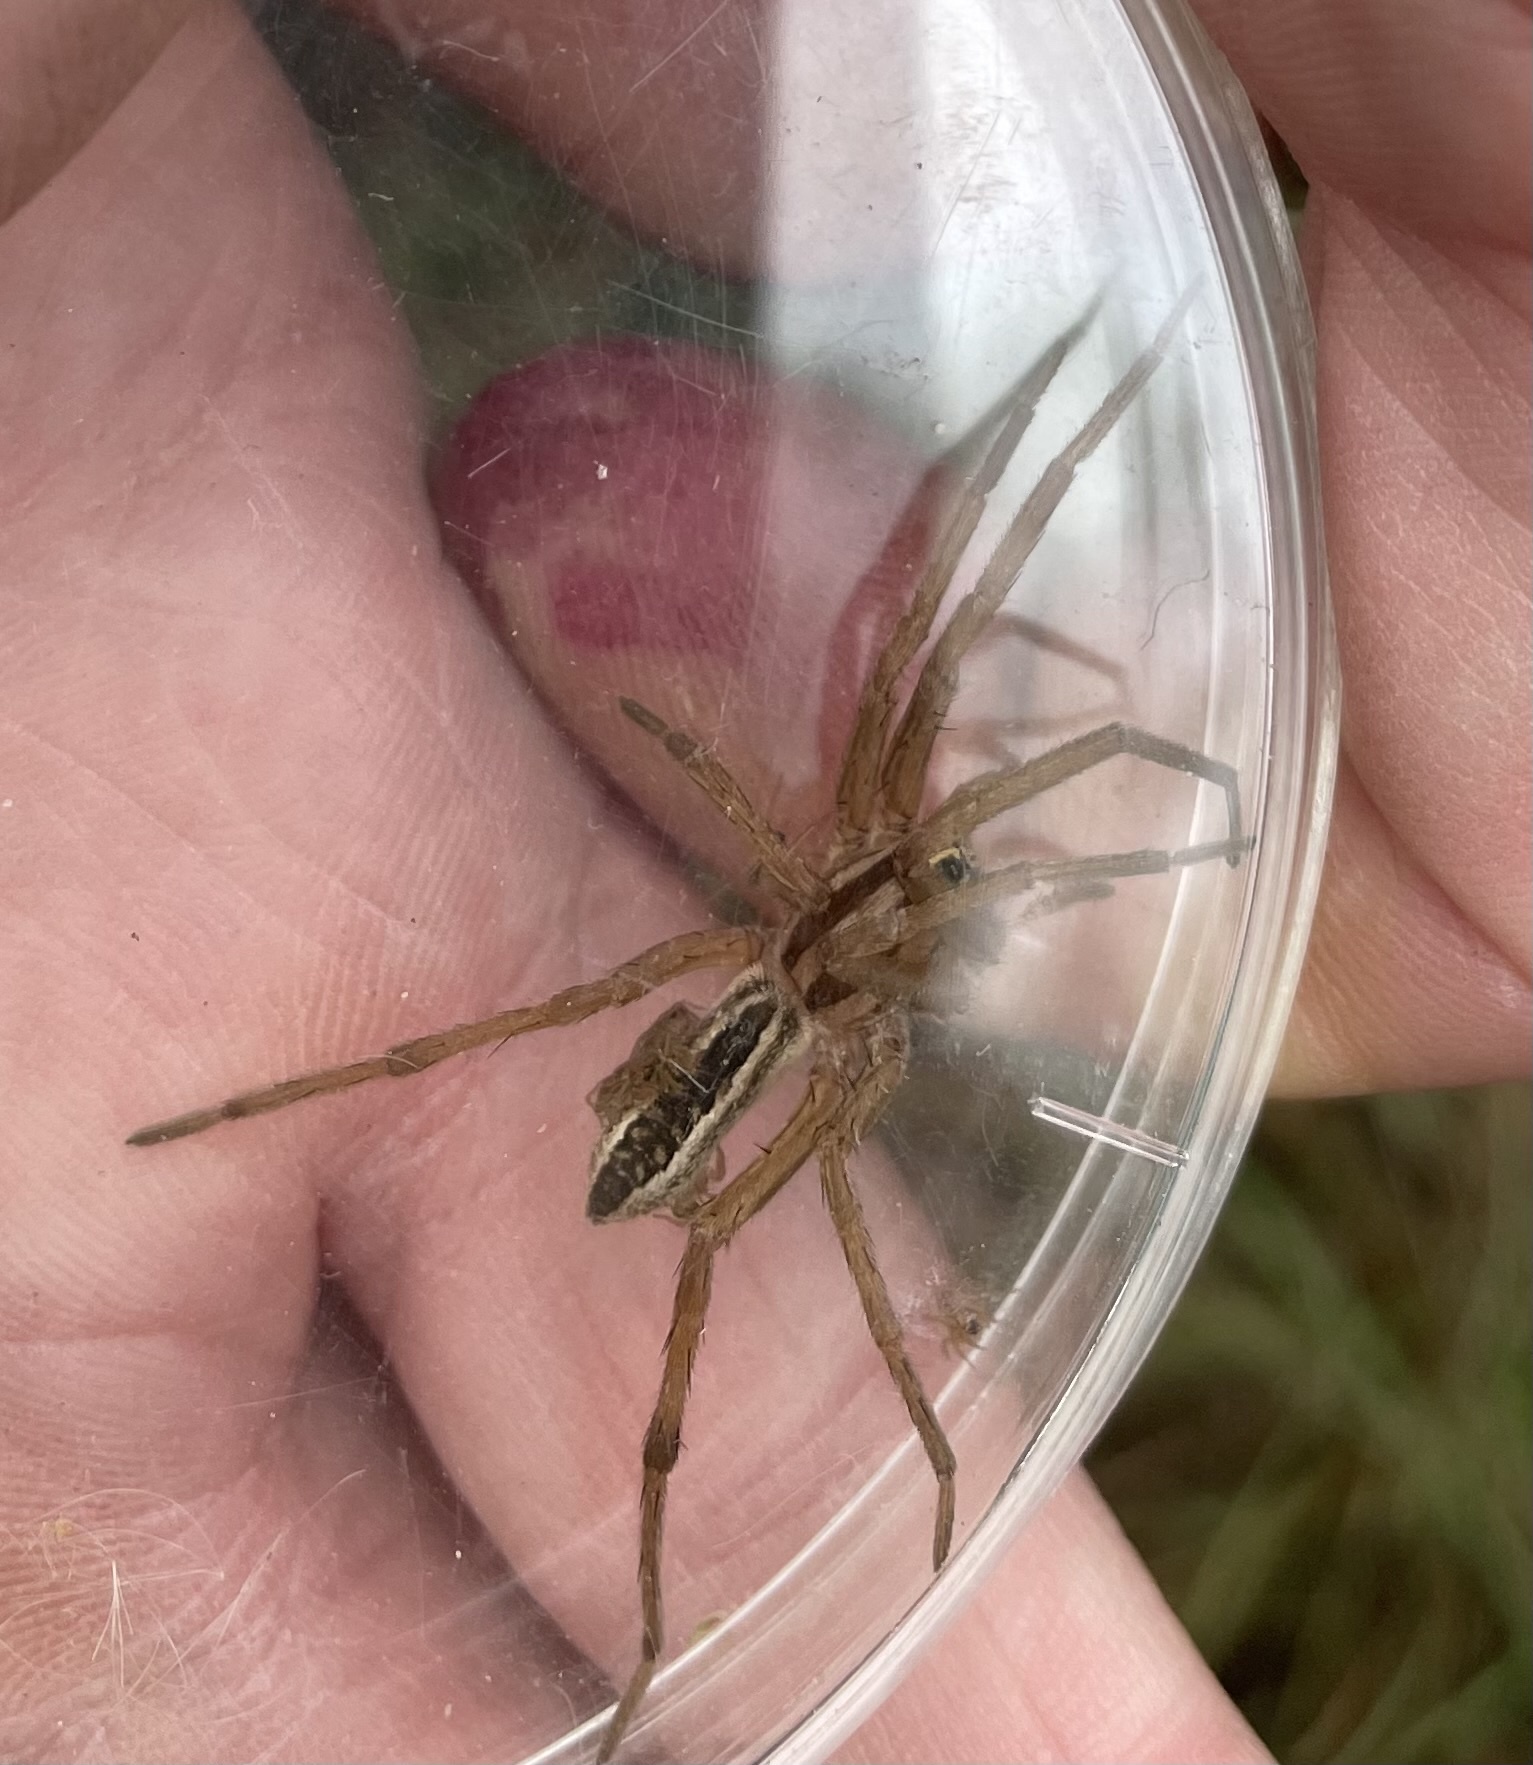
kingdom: Animalia
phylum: Arthropoda
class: Arachnida
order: Araneae
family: Lycosidae
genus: Rabidosa
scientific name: Rabidosa rabida
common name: Rabid wolf spider
